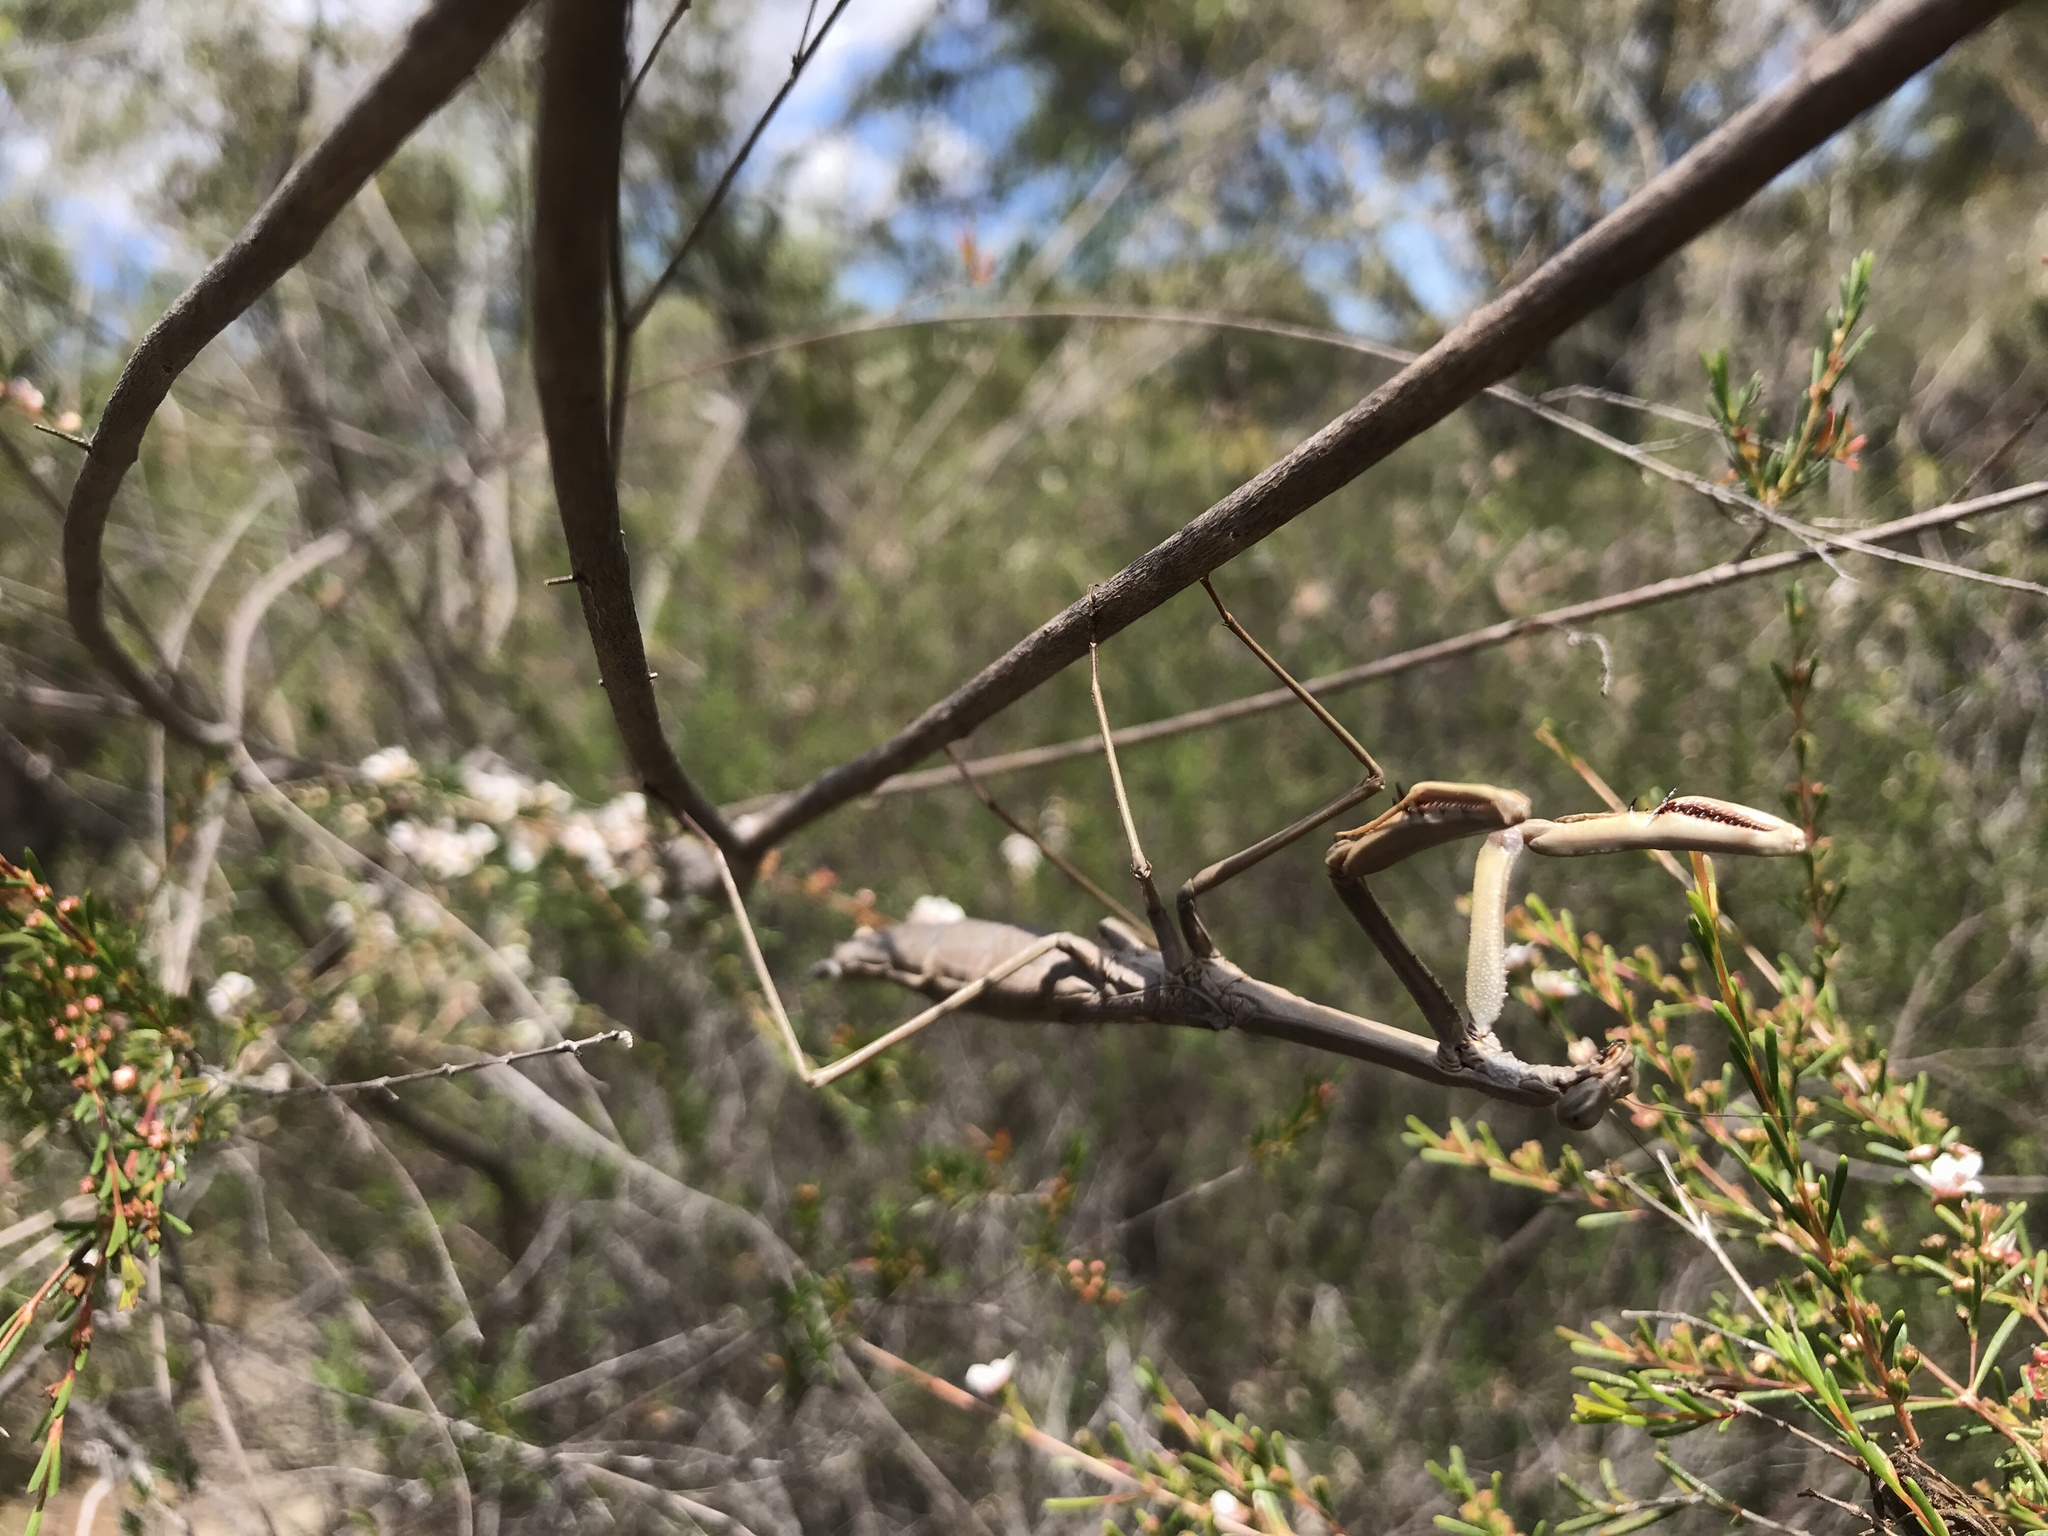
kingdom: Animalia
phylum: Arthropoda
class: Insecta
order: Mantodea
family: Mantidae
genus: Archimantis
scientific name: Archimantis sobrina
